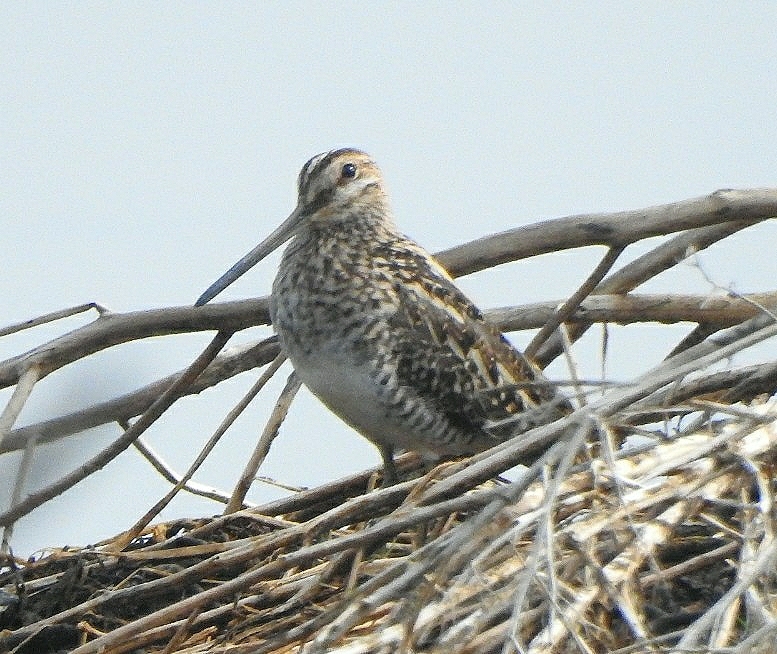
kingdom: Animalia
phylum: Chordata
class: Aves
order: Charadriiformes
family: Scolopacidae
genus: Gallinago
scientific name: Gallinago gallinago
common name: Common snipe
